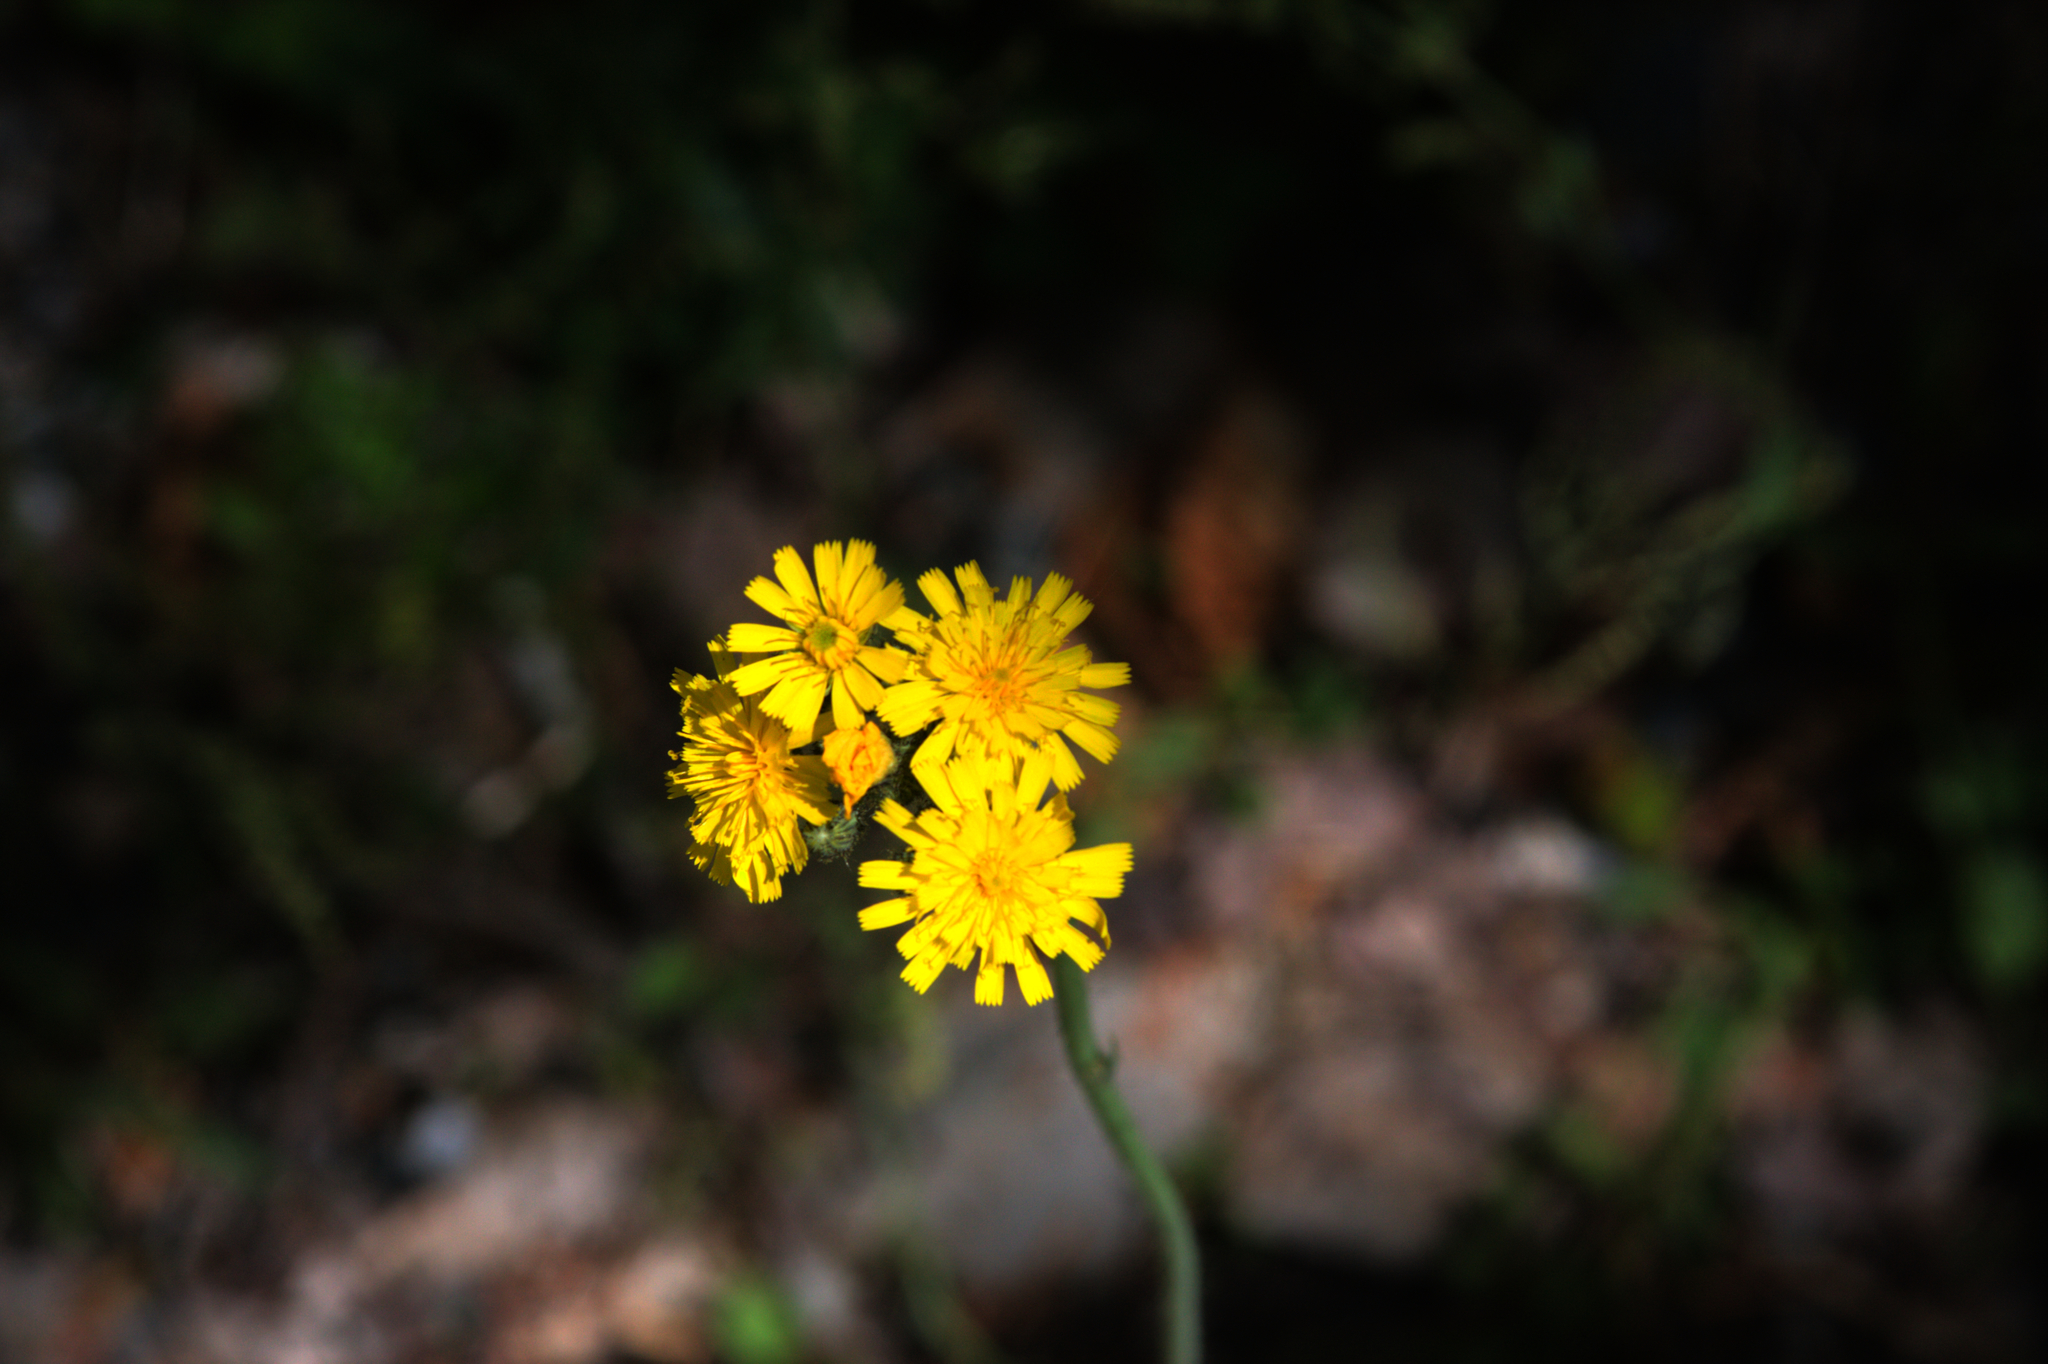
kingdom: Plantae
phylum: Tracheophyta
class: Magnoliopsida
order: Asterales
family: Asteraceae
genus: Pilosella
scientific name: Pilosella caespitosa
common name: Yellow fox-and-cubs
